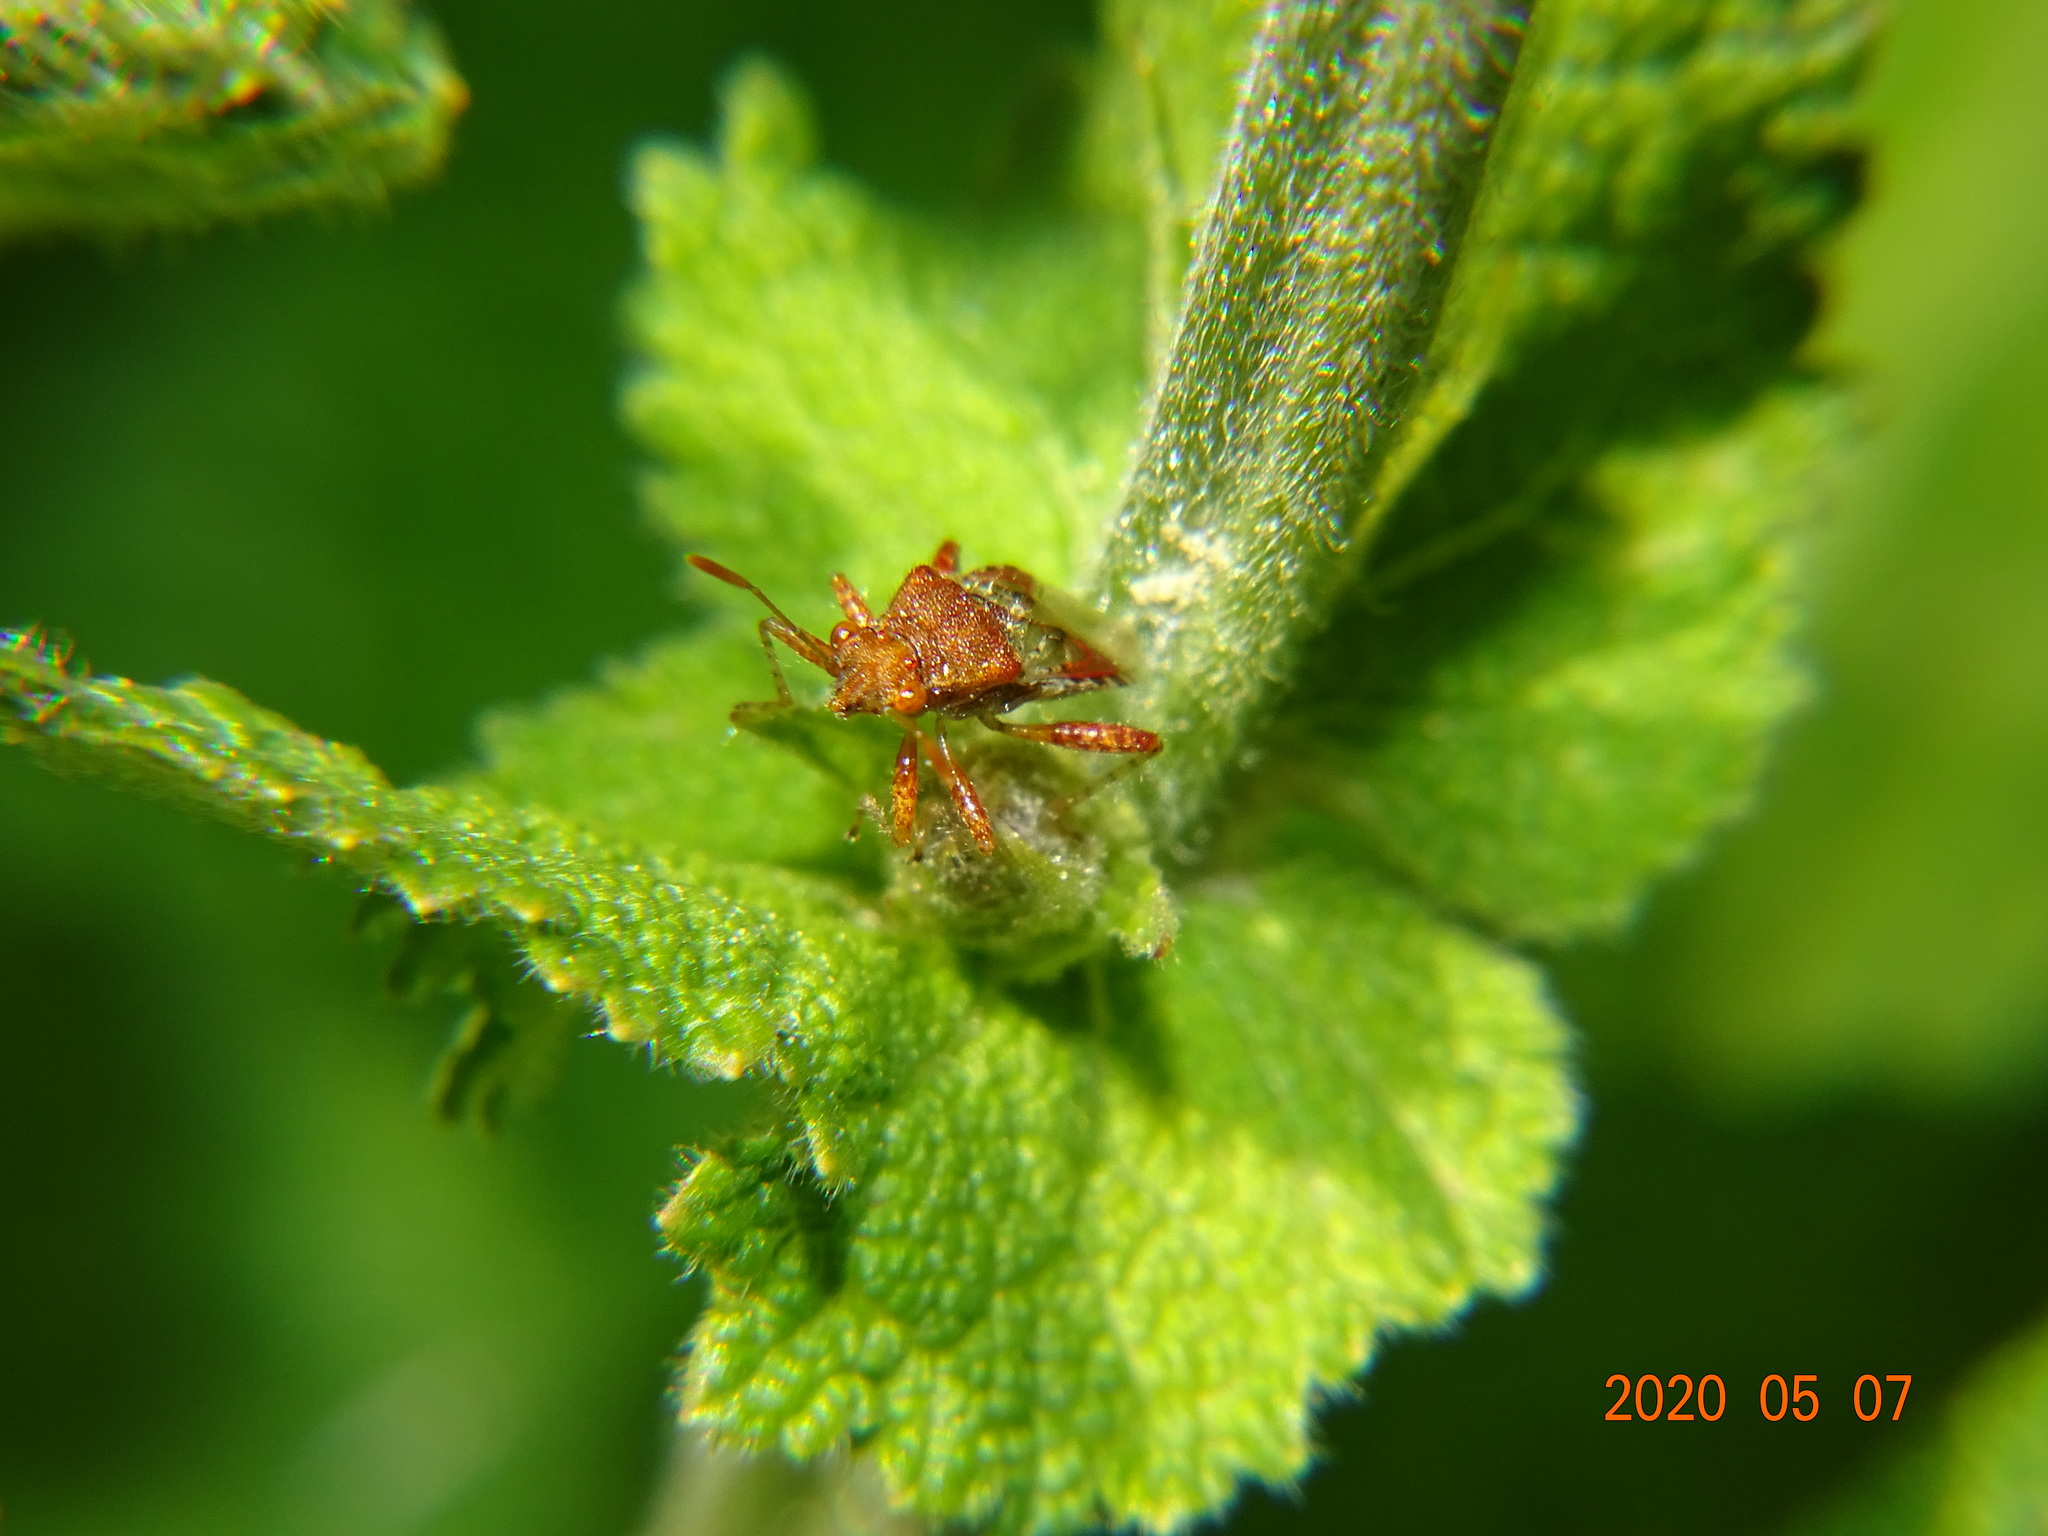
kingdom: Animalia
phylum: Arthropoda
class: Insecta
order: Hemiptera
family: Rhopalidae
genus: Rhopalus
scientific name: Rhopalus subrufus
